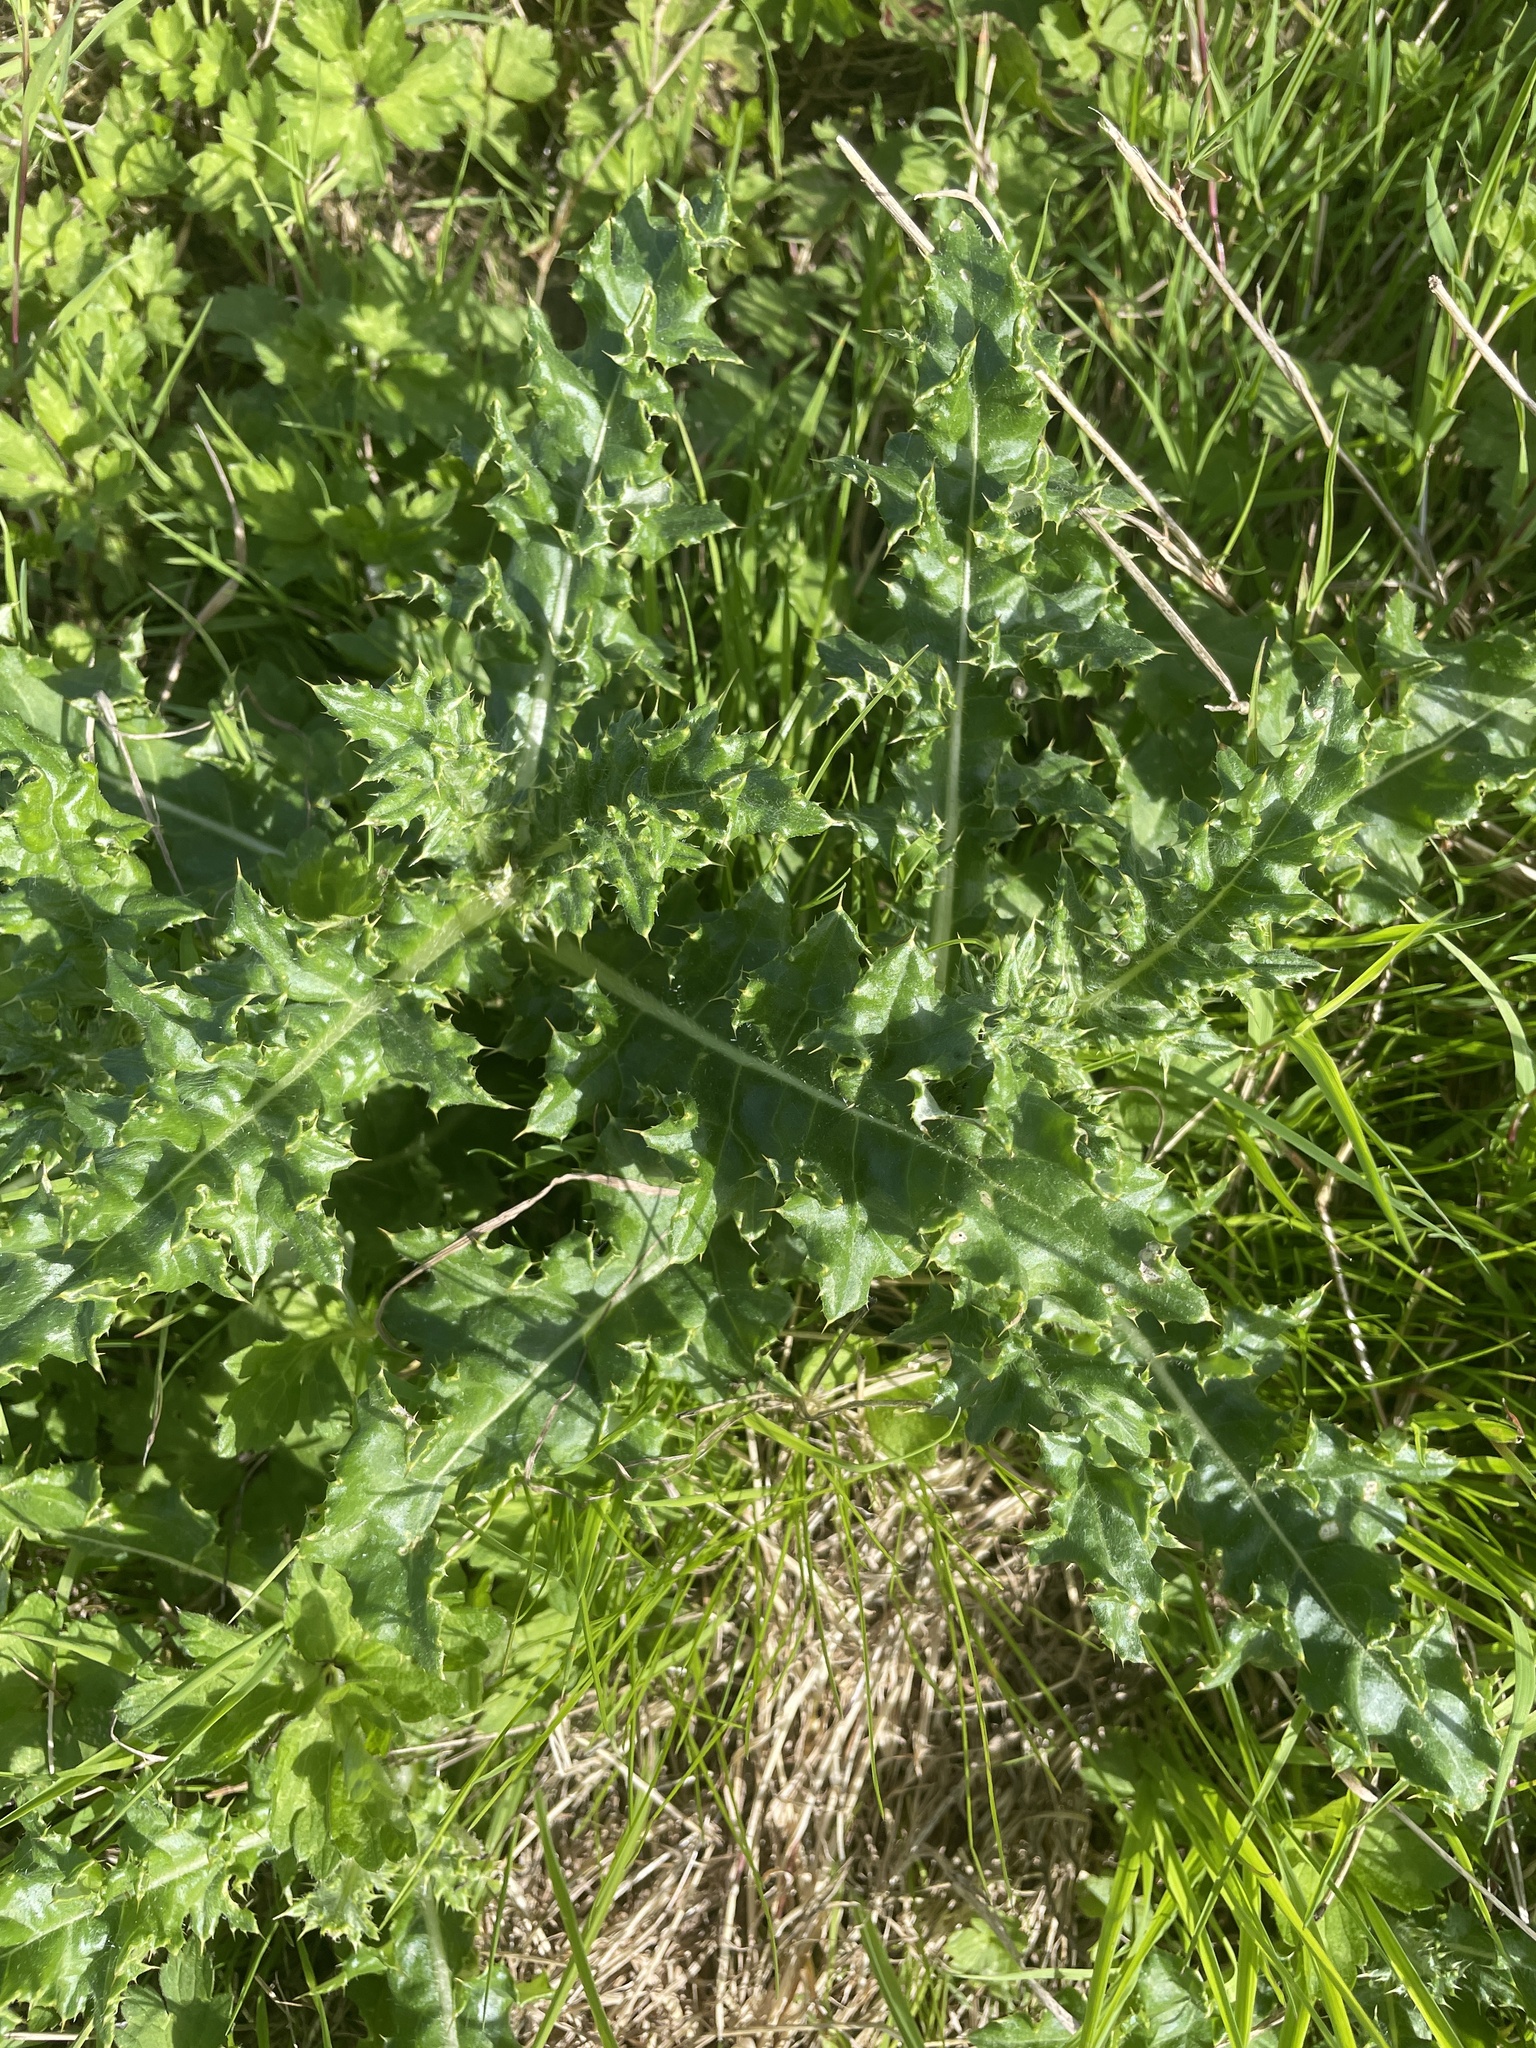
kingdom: Plantae
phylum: Tracheophyta
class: Magnoliopsida
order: Asterales
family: Asteraceae
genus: Cirsium
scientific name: Cirsium arvense
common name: Creeping thistle
